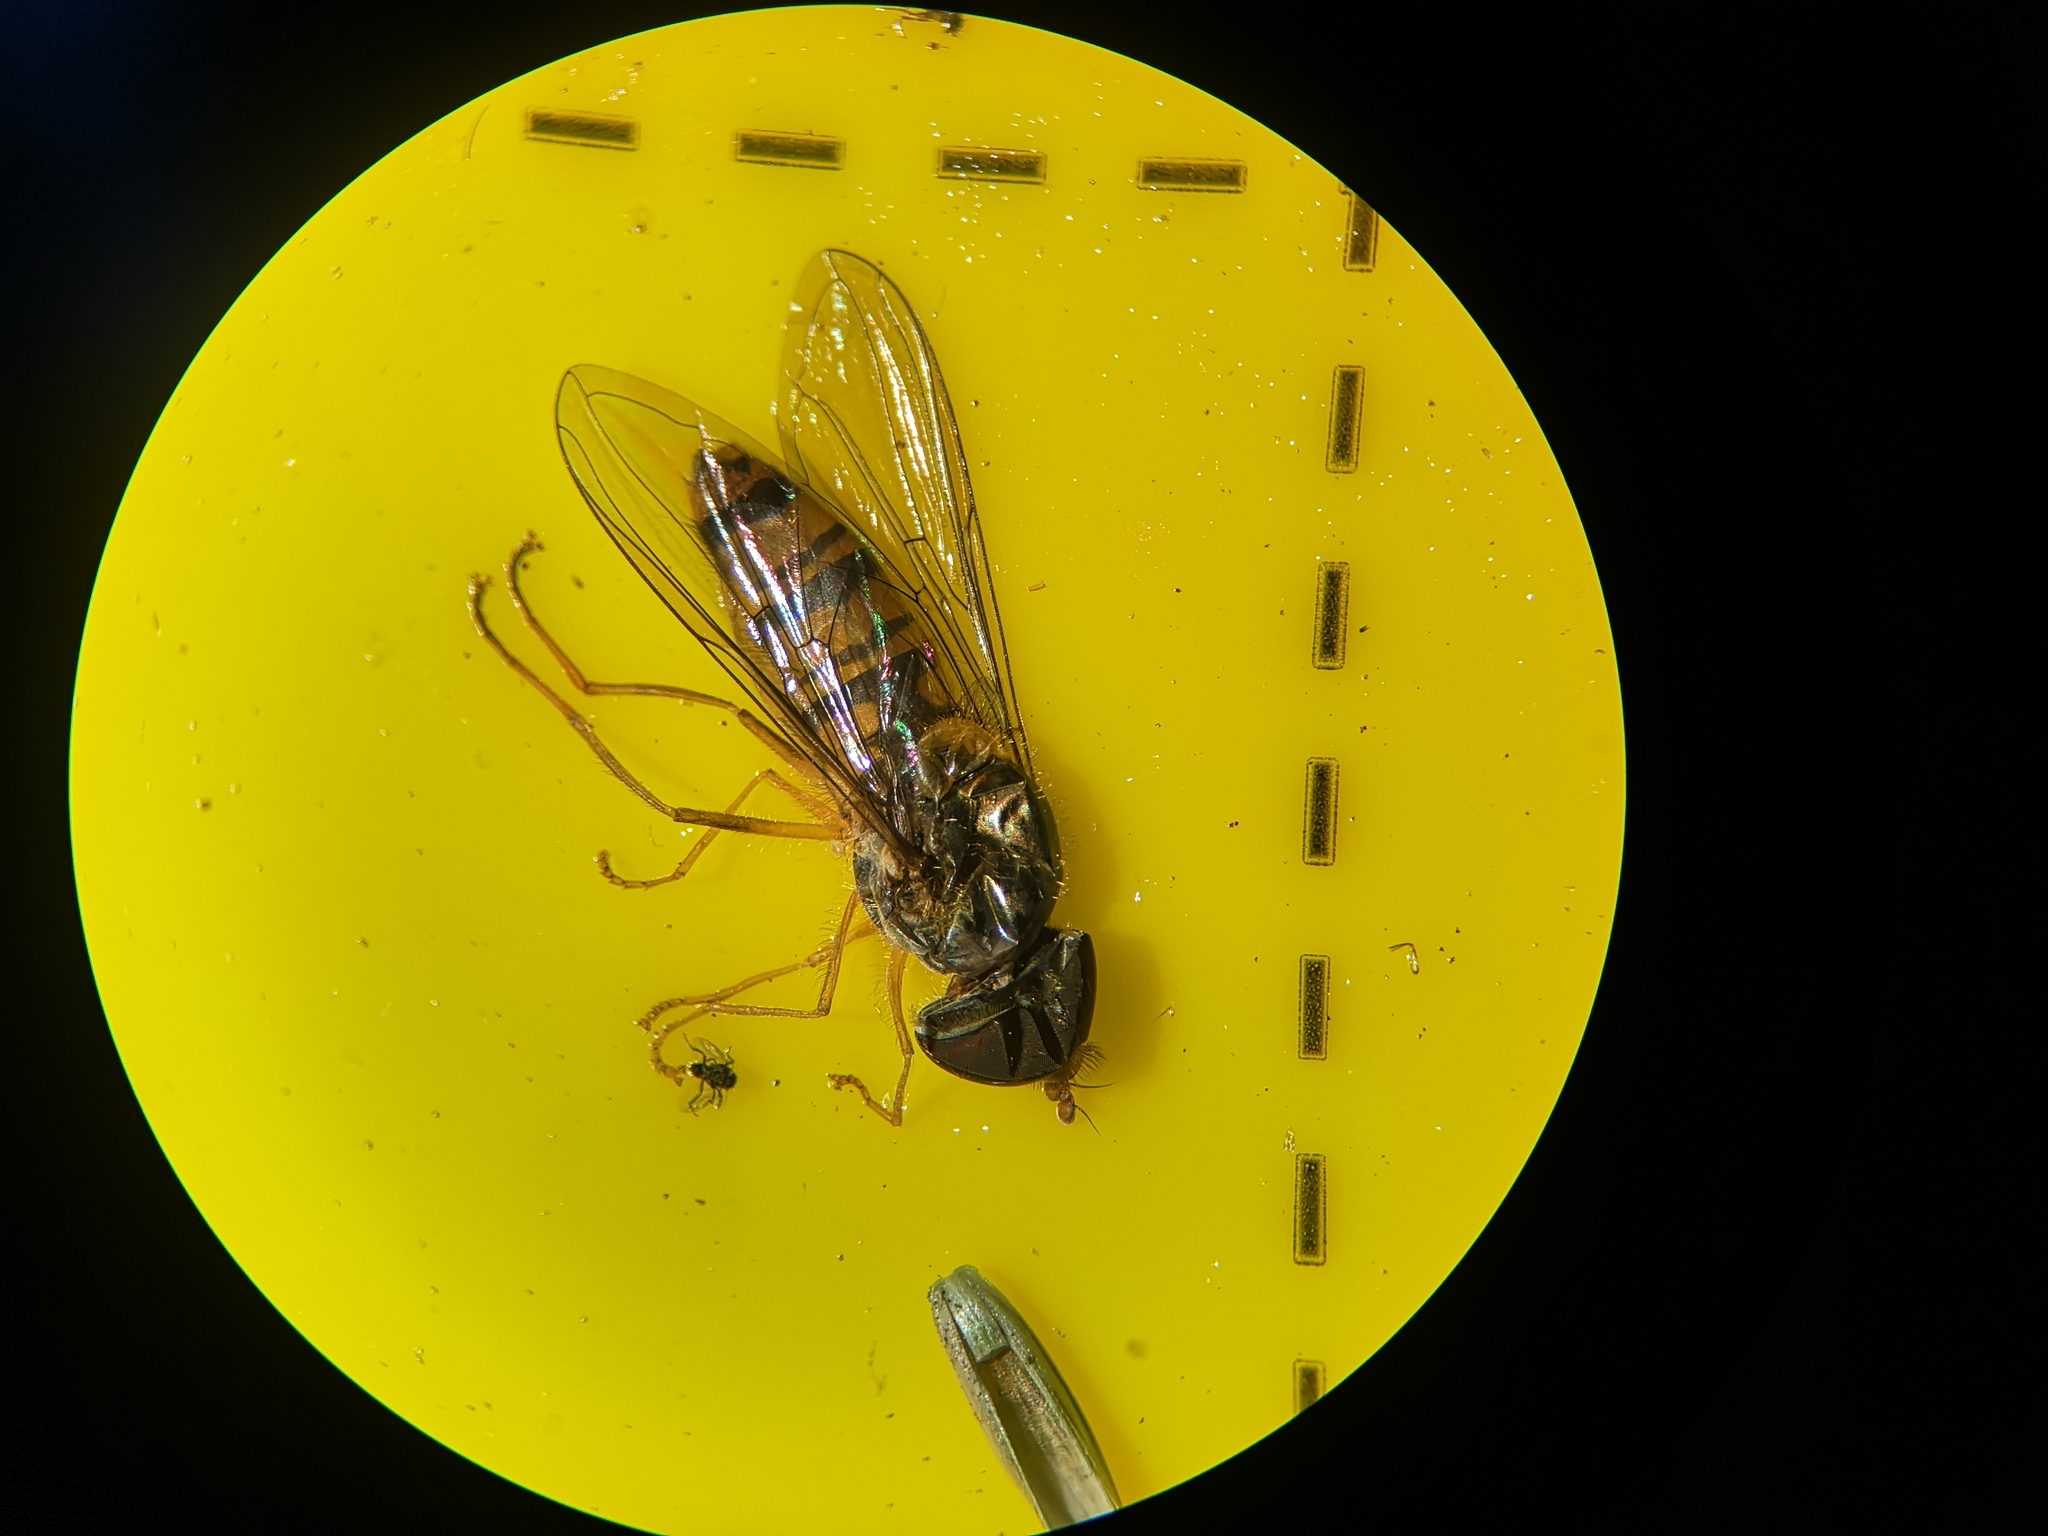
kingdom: Animalia
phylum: Arthropoda
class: Insecta
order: Diptera
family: Syrphidae
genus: Episyrphus
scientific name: Episyrphus balteatus
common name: Marmalade hoverfly
